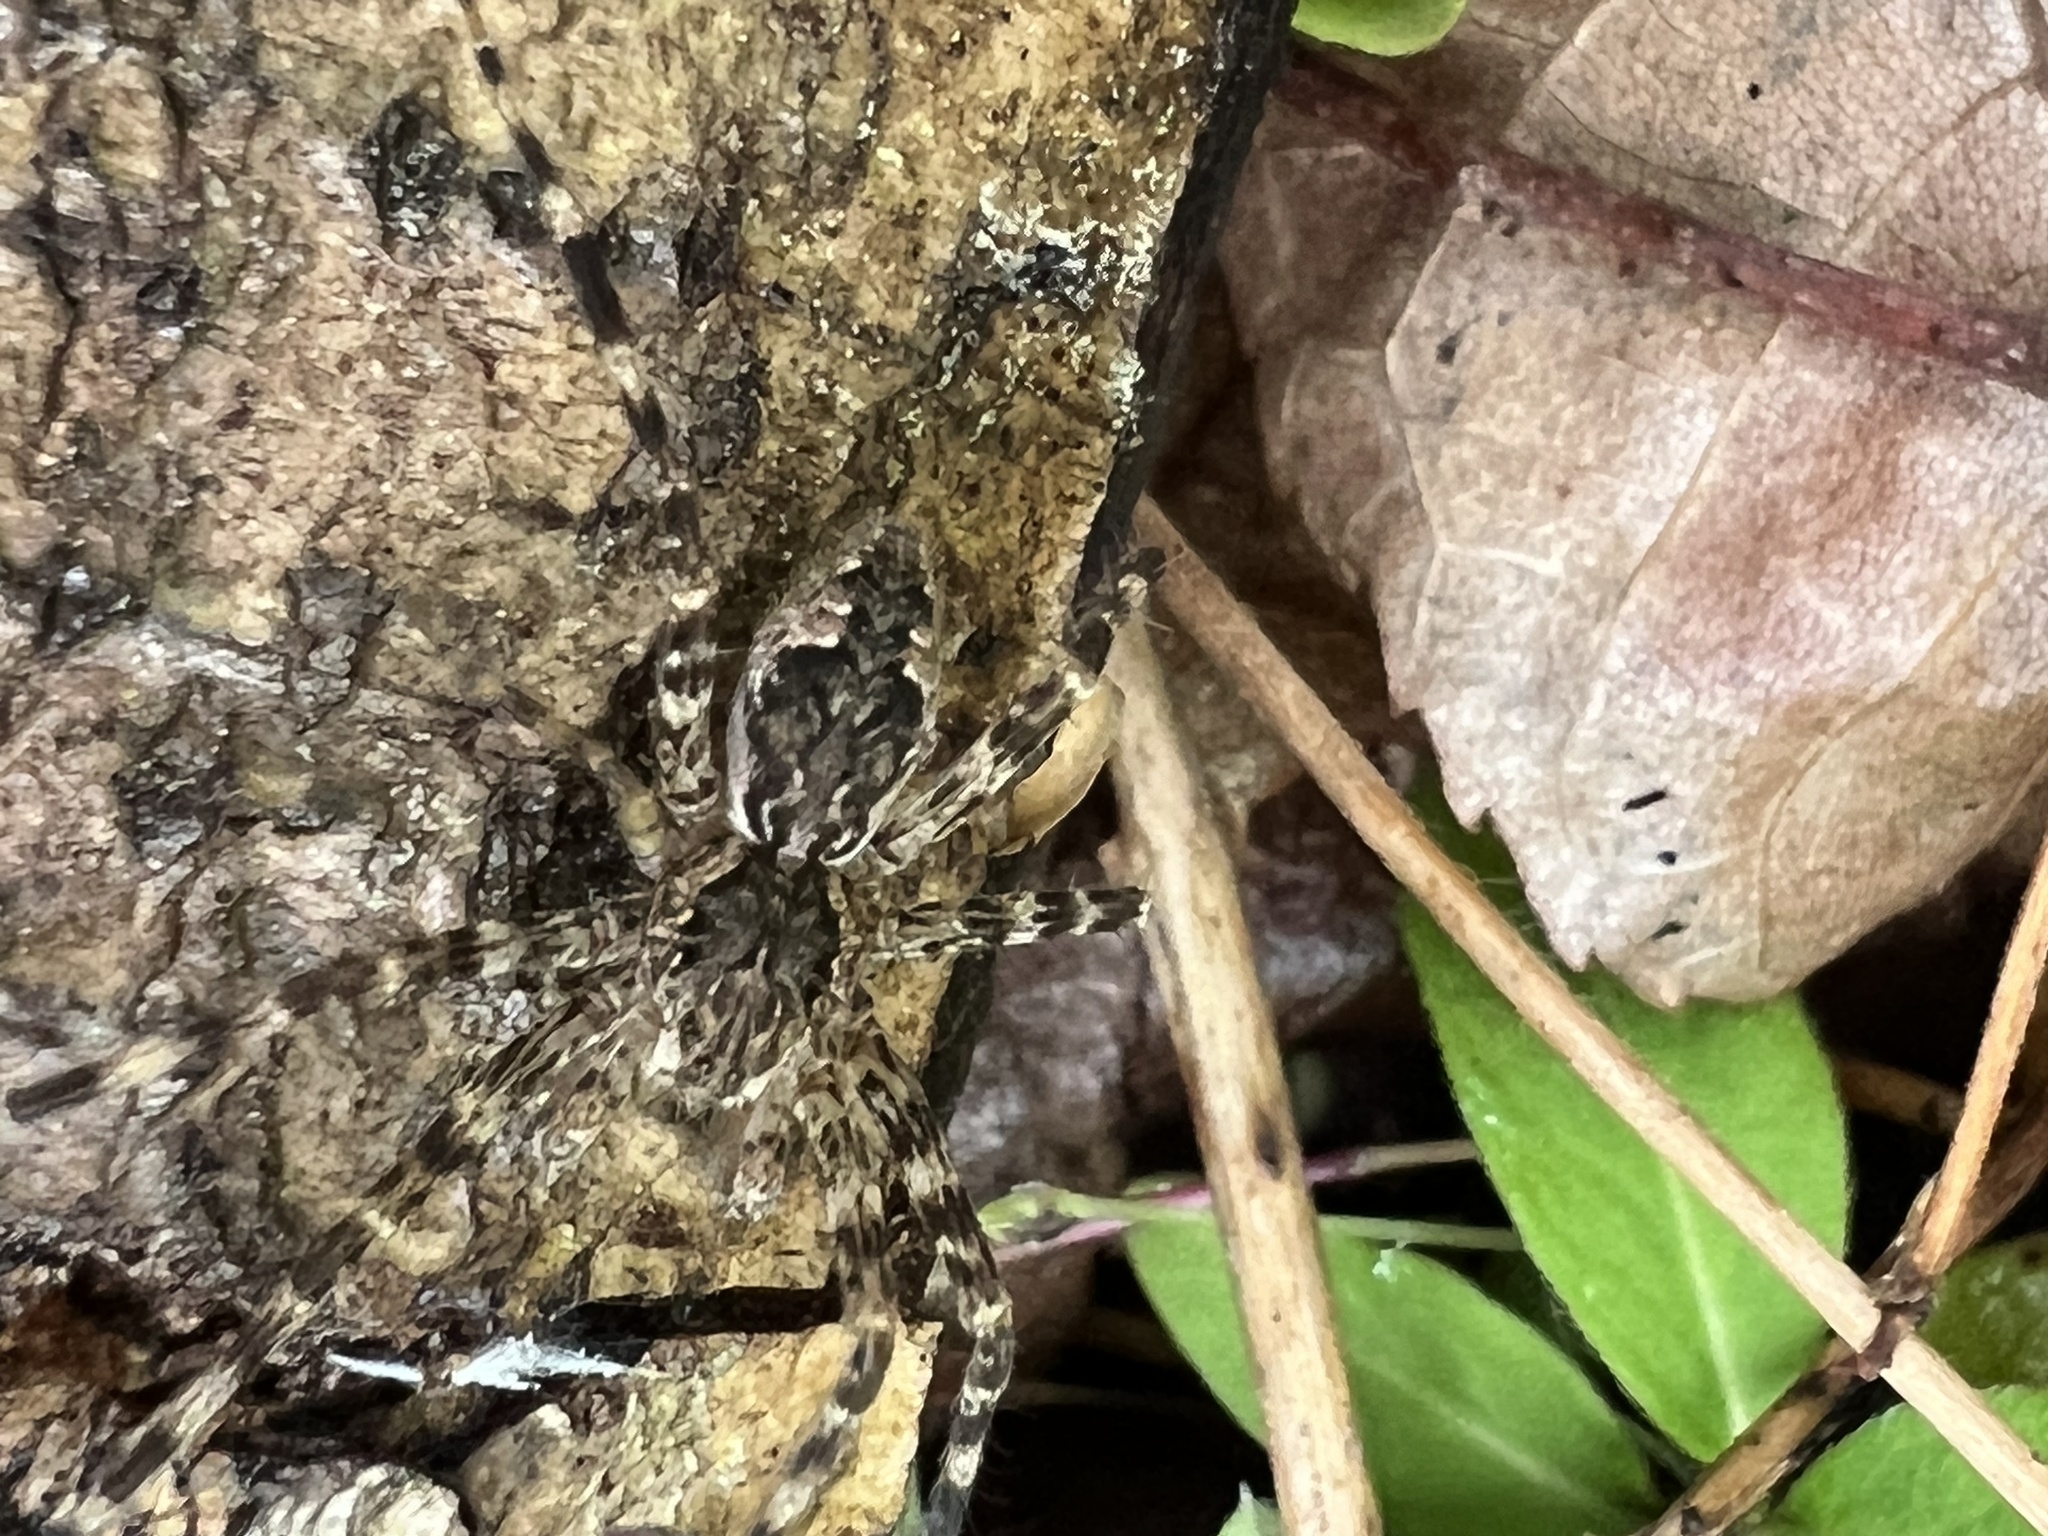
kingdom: Animalia
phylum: Arthropoda
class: Arachnida
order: Araneae
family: Pisauridae
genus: Dolomedes
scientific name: Dolomedes tenebrosus
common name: Dark fishing spider
